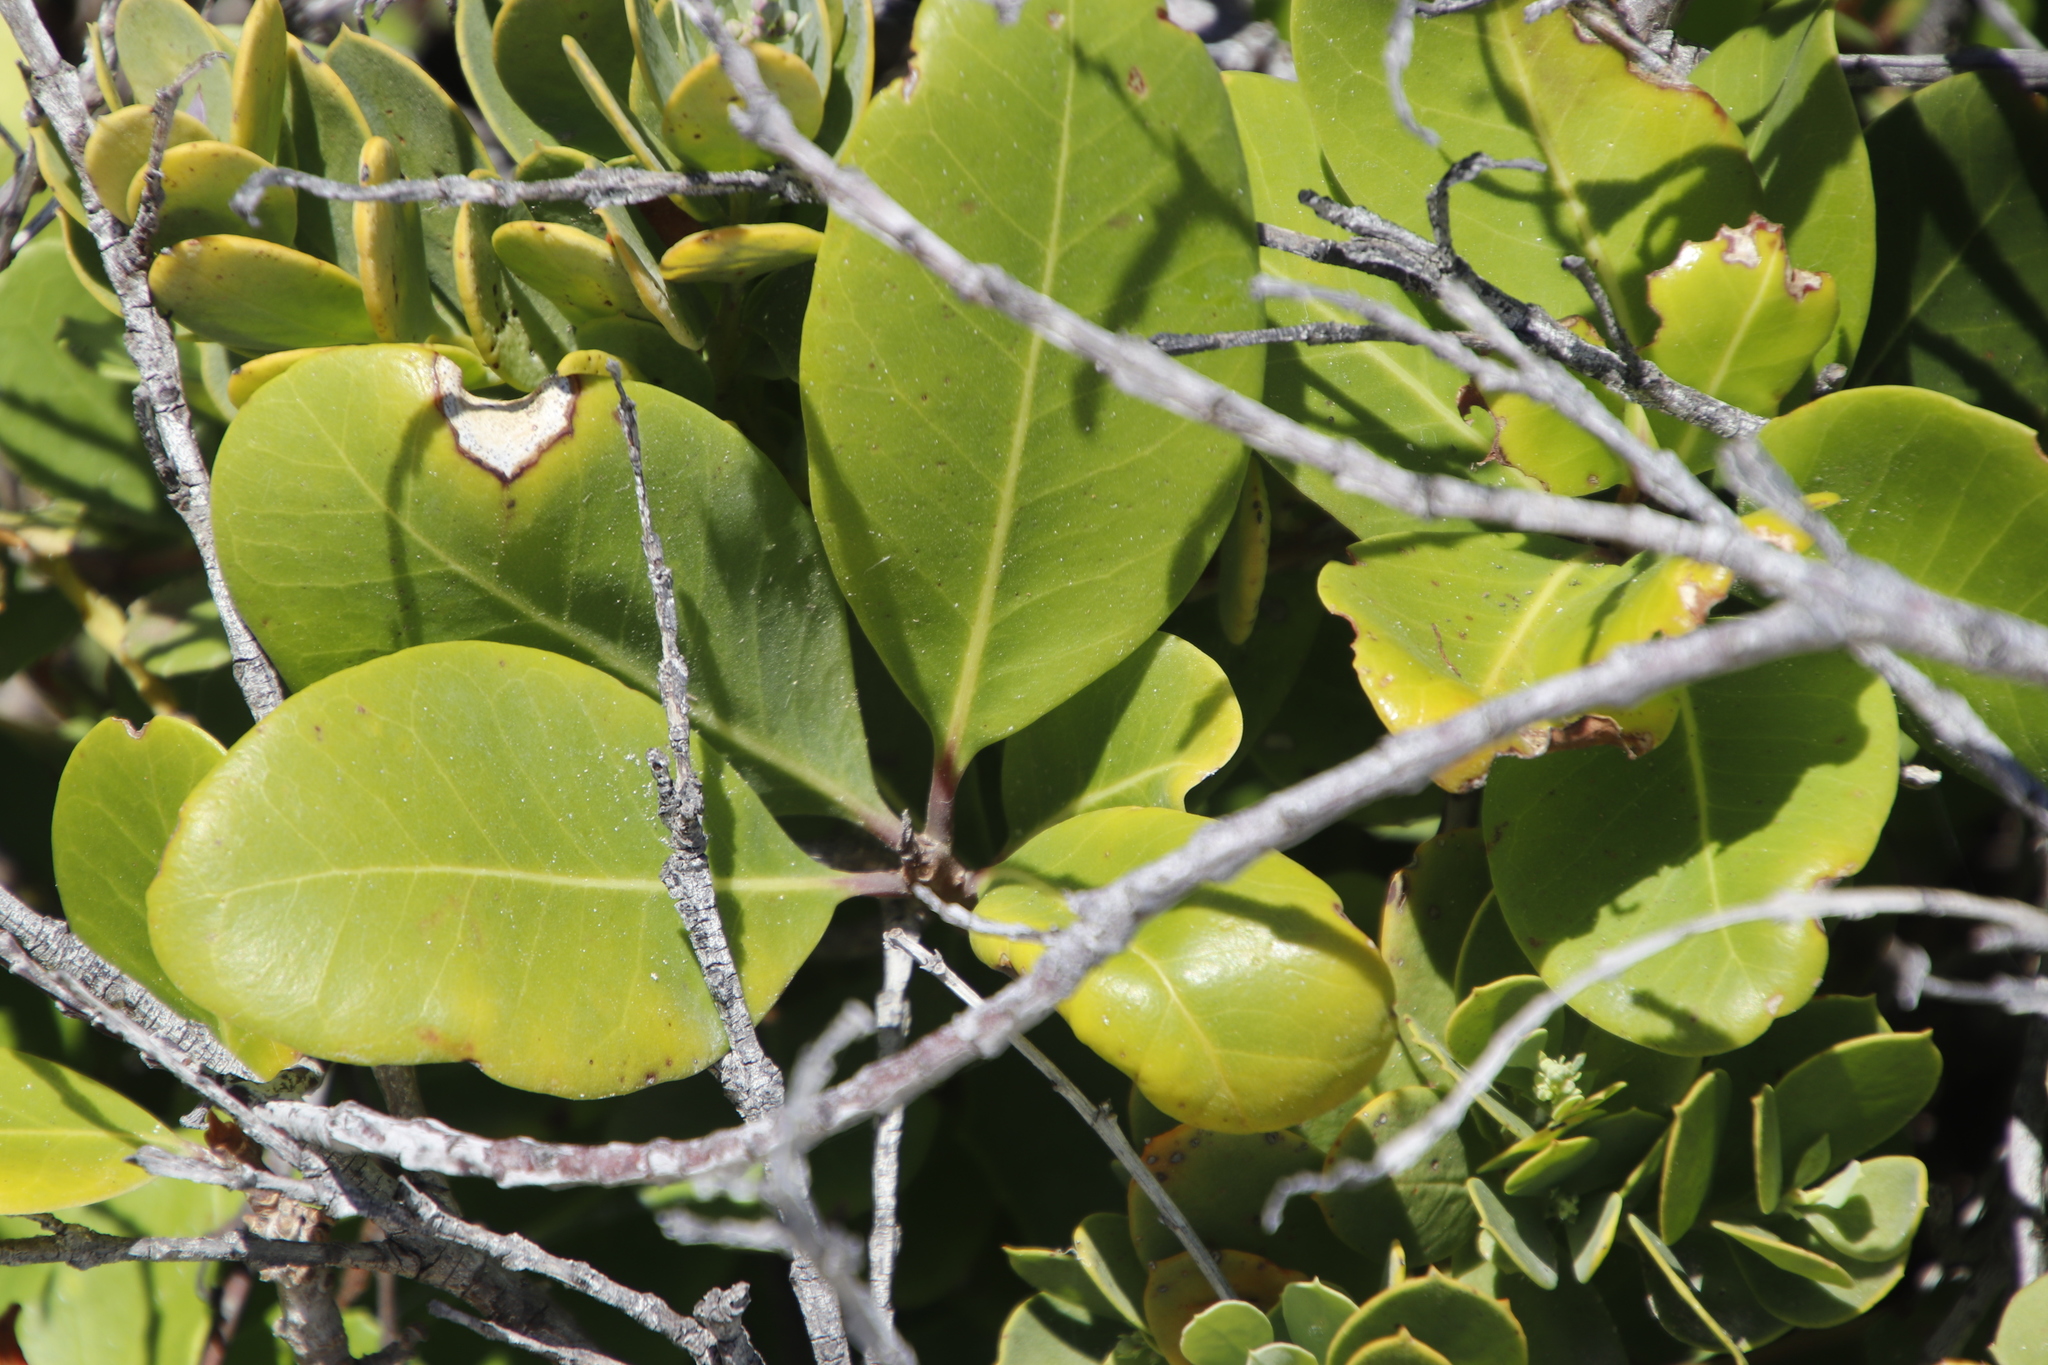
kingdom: Plantae
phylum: Tracheophyta
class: Magnoliopsida
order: Ericales
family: Sapotaceae
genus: Sideroxylon
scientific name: Sideroxylon inerme
